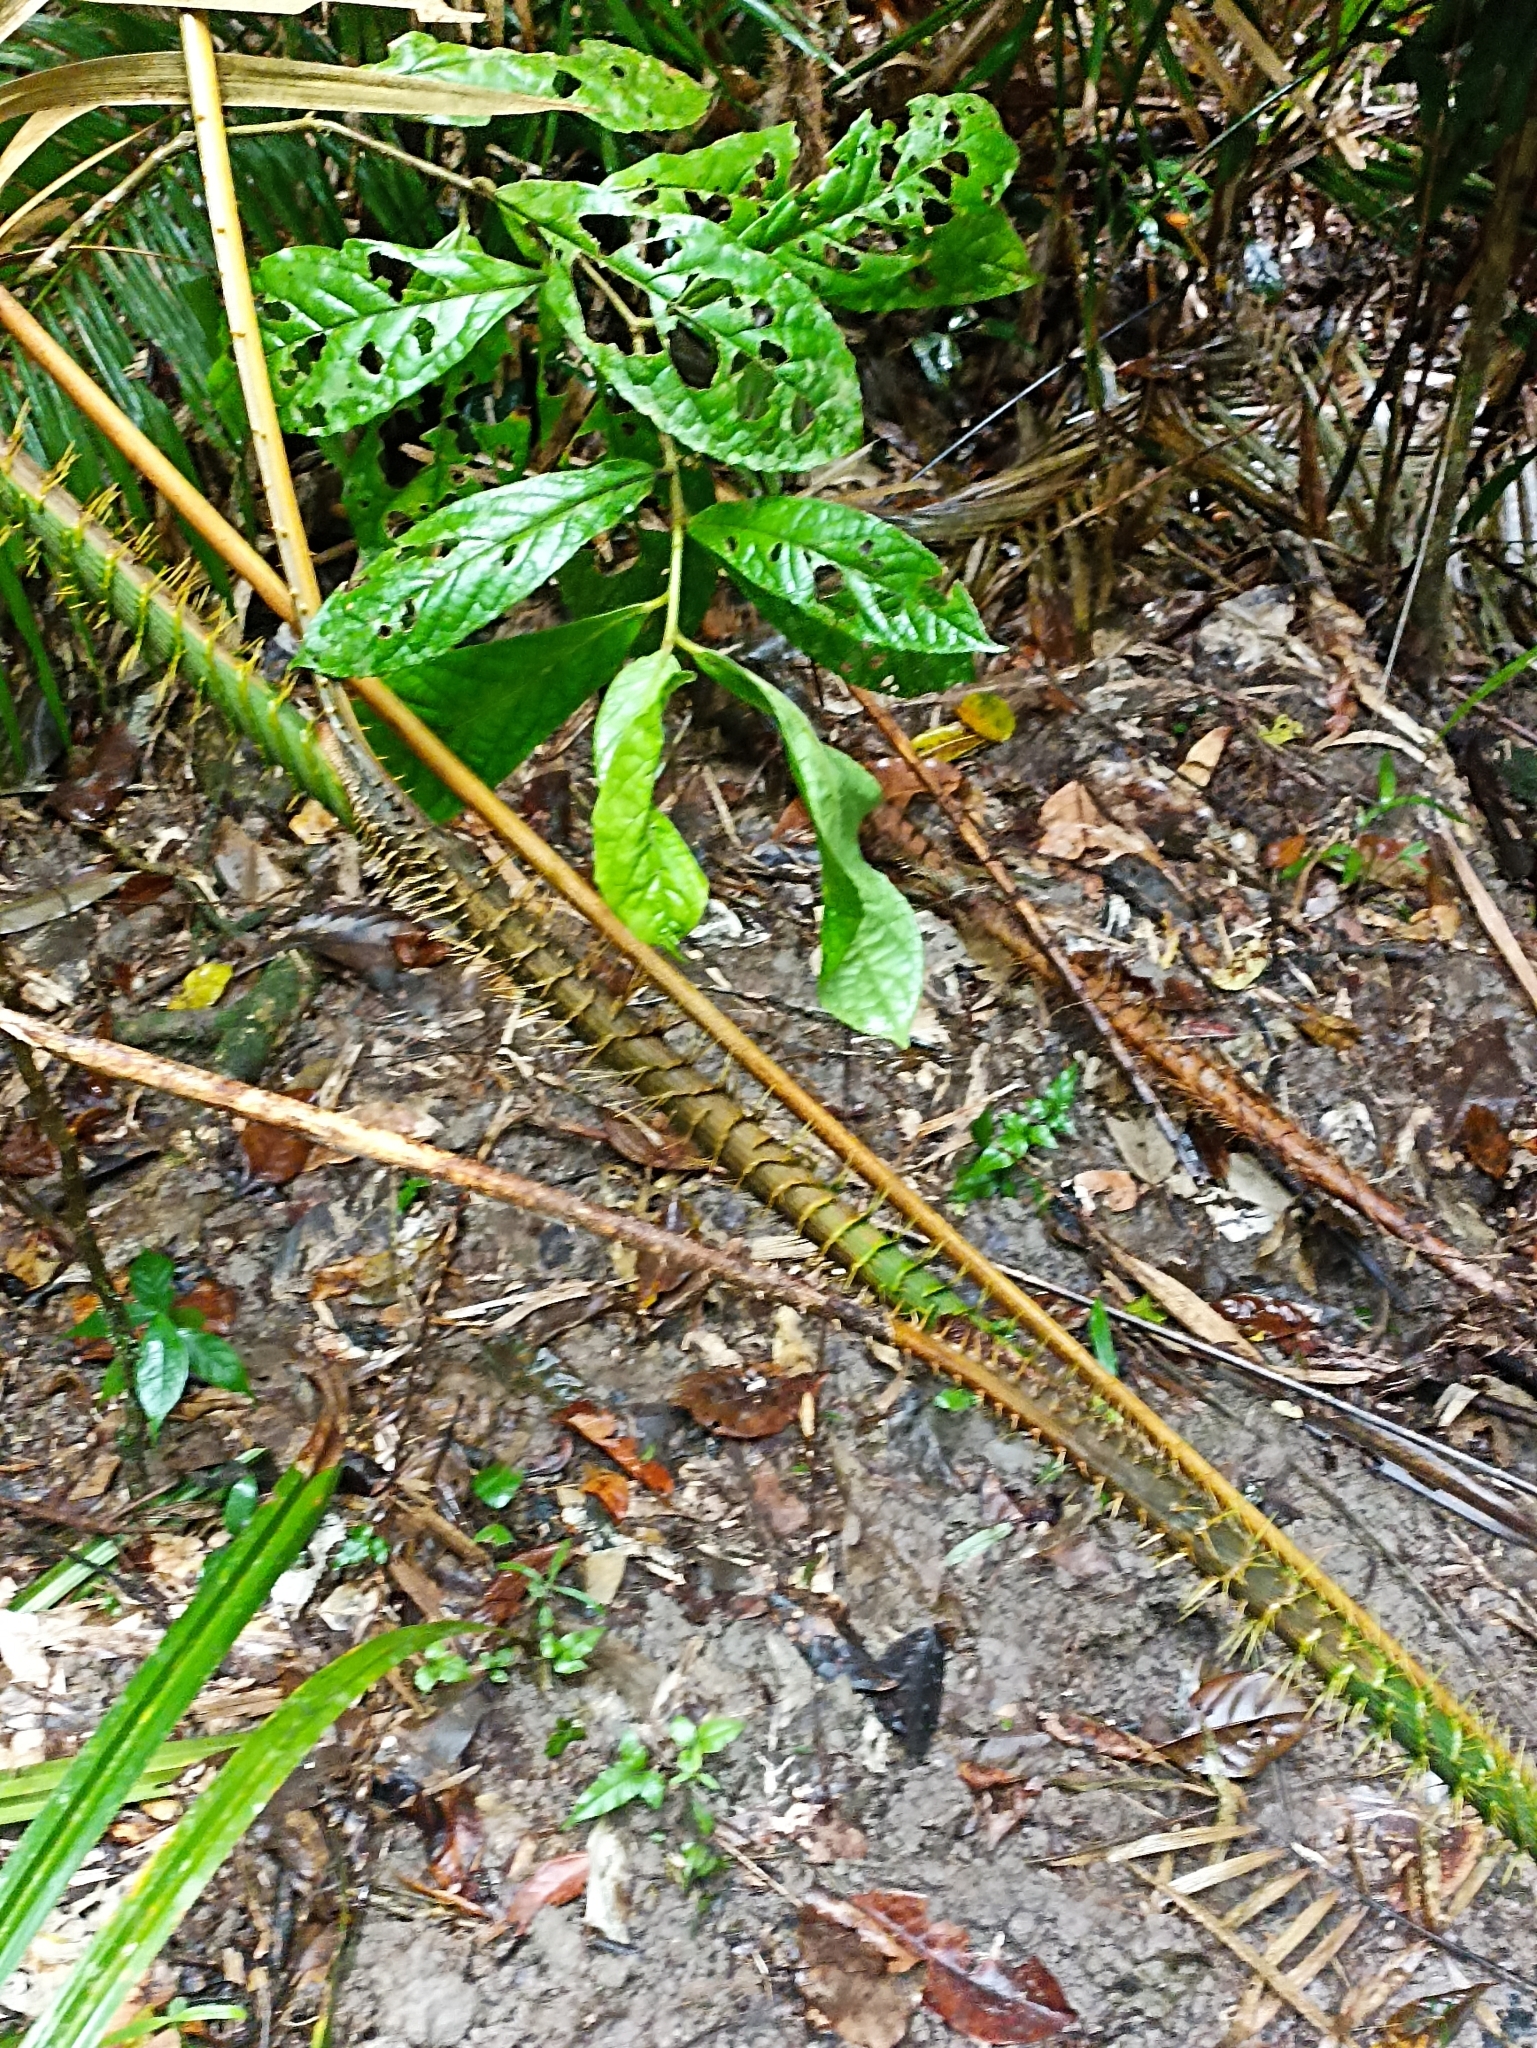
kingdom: Plantae
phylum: Tracheophyta
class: Liliopsida
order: Arecales
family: Arecaceae
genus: Calamus
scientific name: Calamus moti
